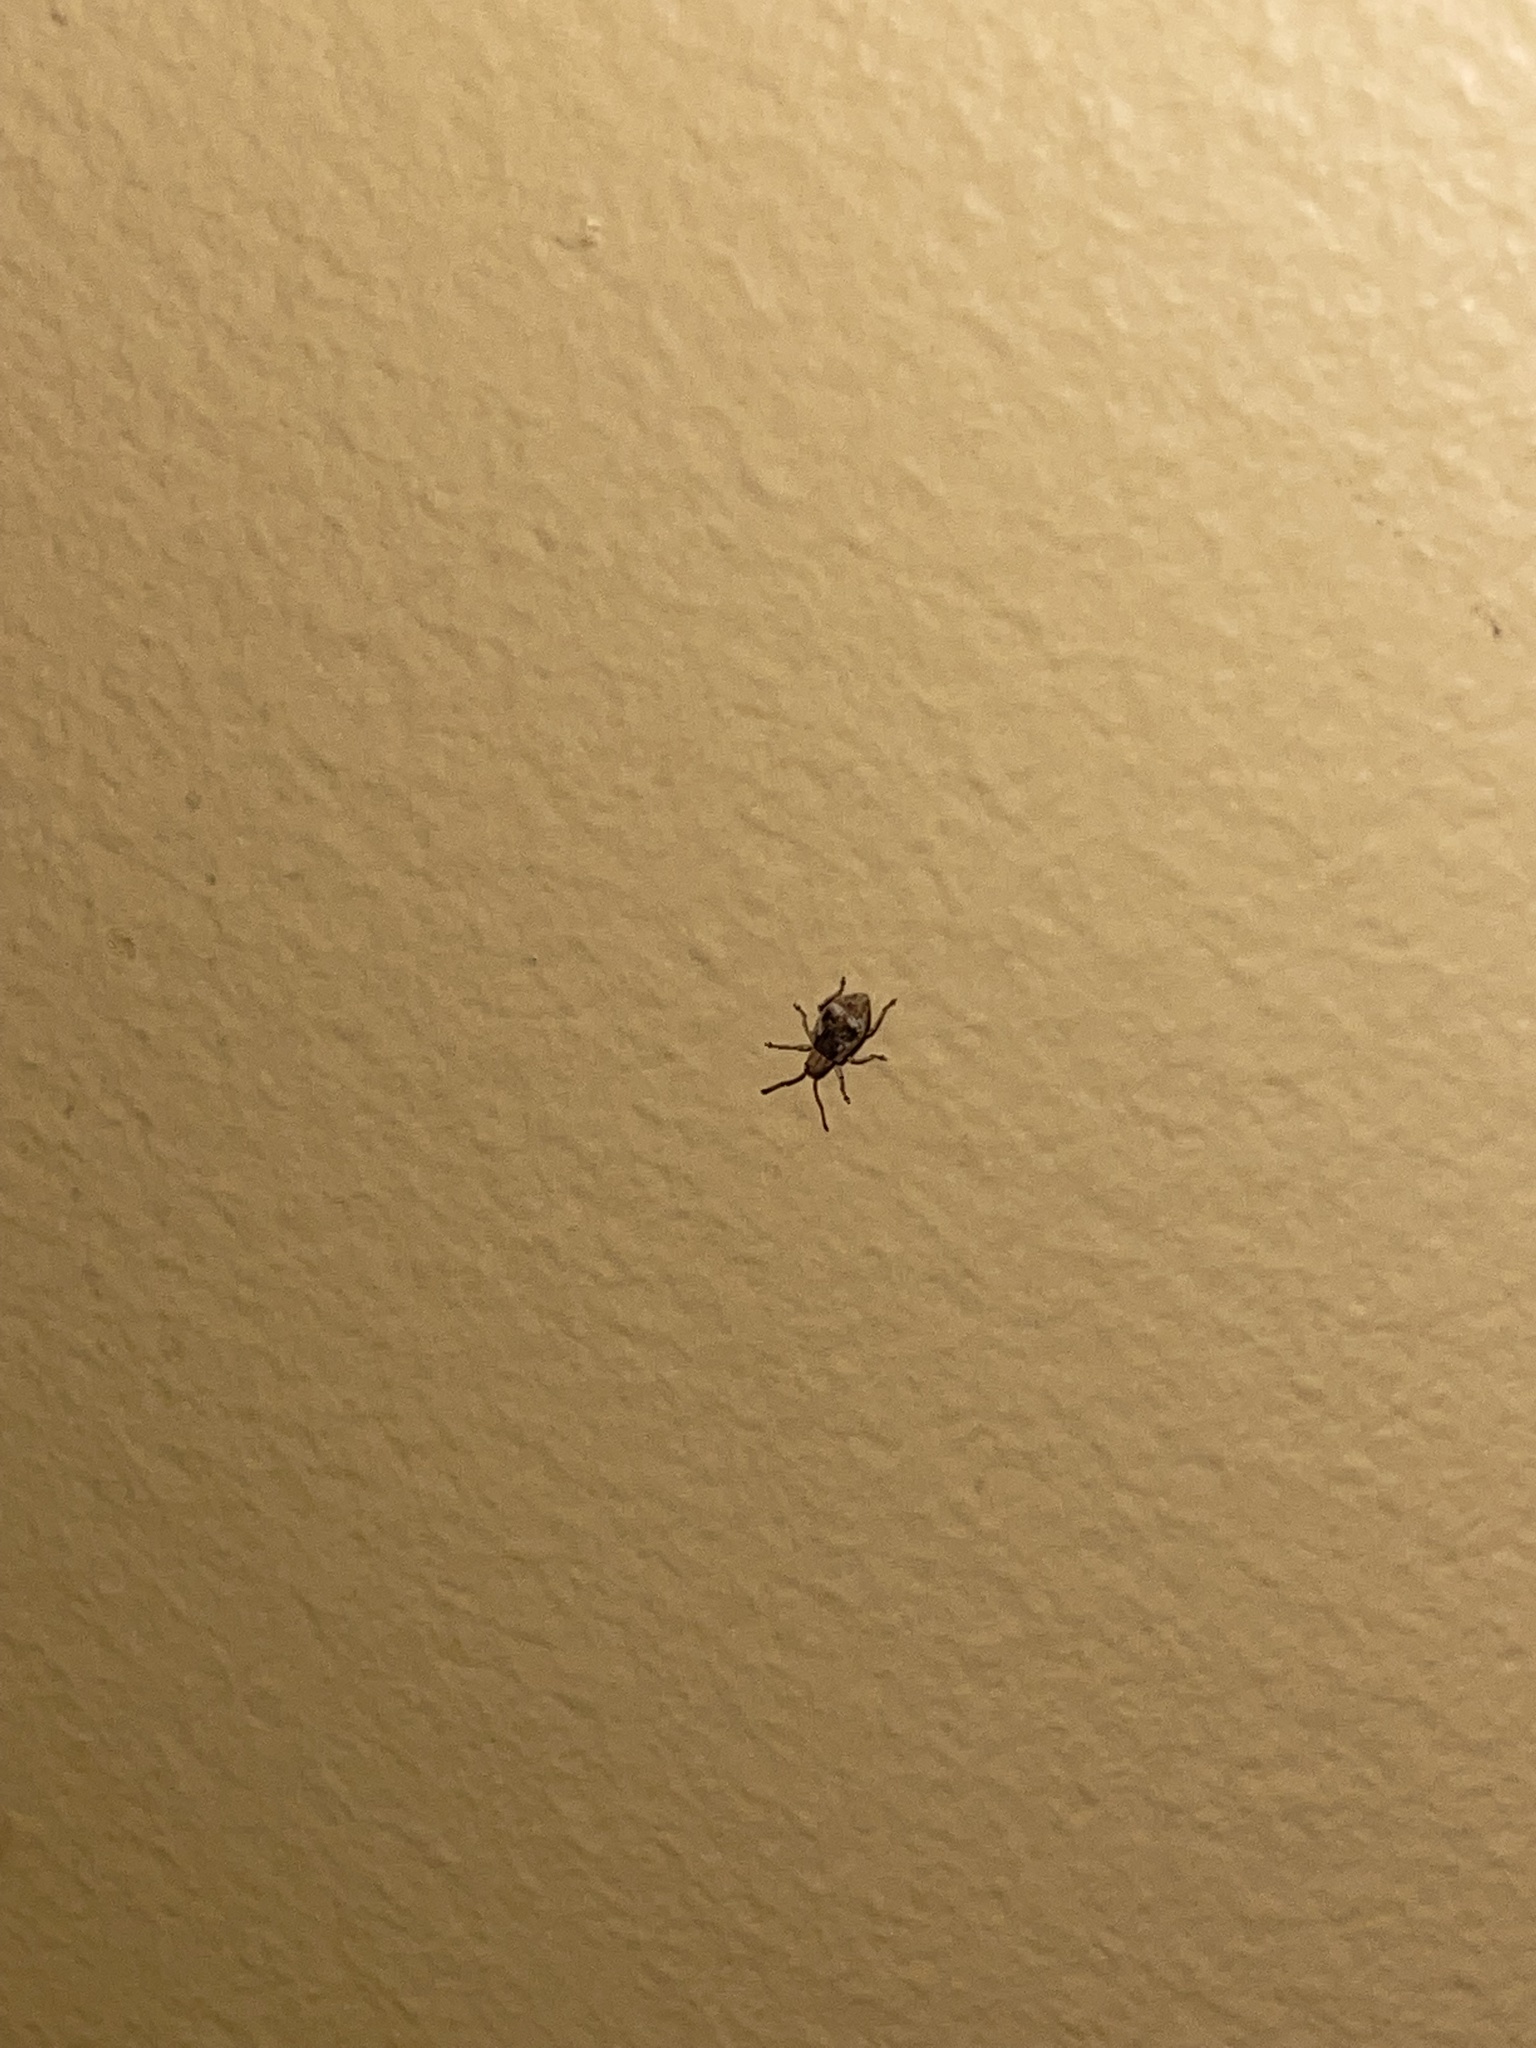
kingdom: Animalia
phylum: Arthropoda
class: Insecta
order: Coleoptera
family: Curculionidae
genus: Pseudoedophrys
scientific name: Pseudoedophrys hilleri
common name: Weevil
